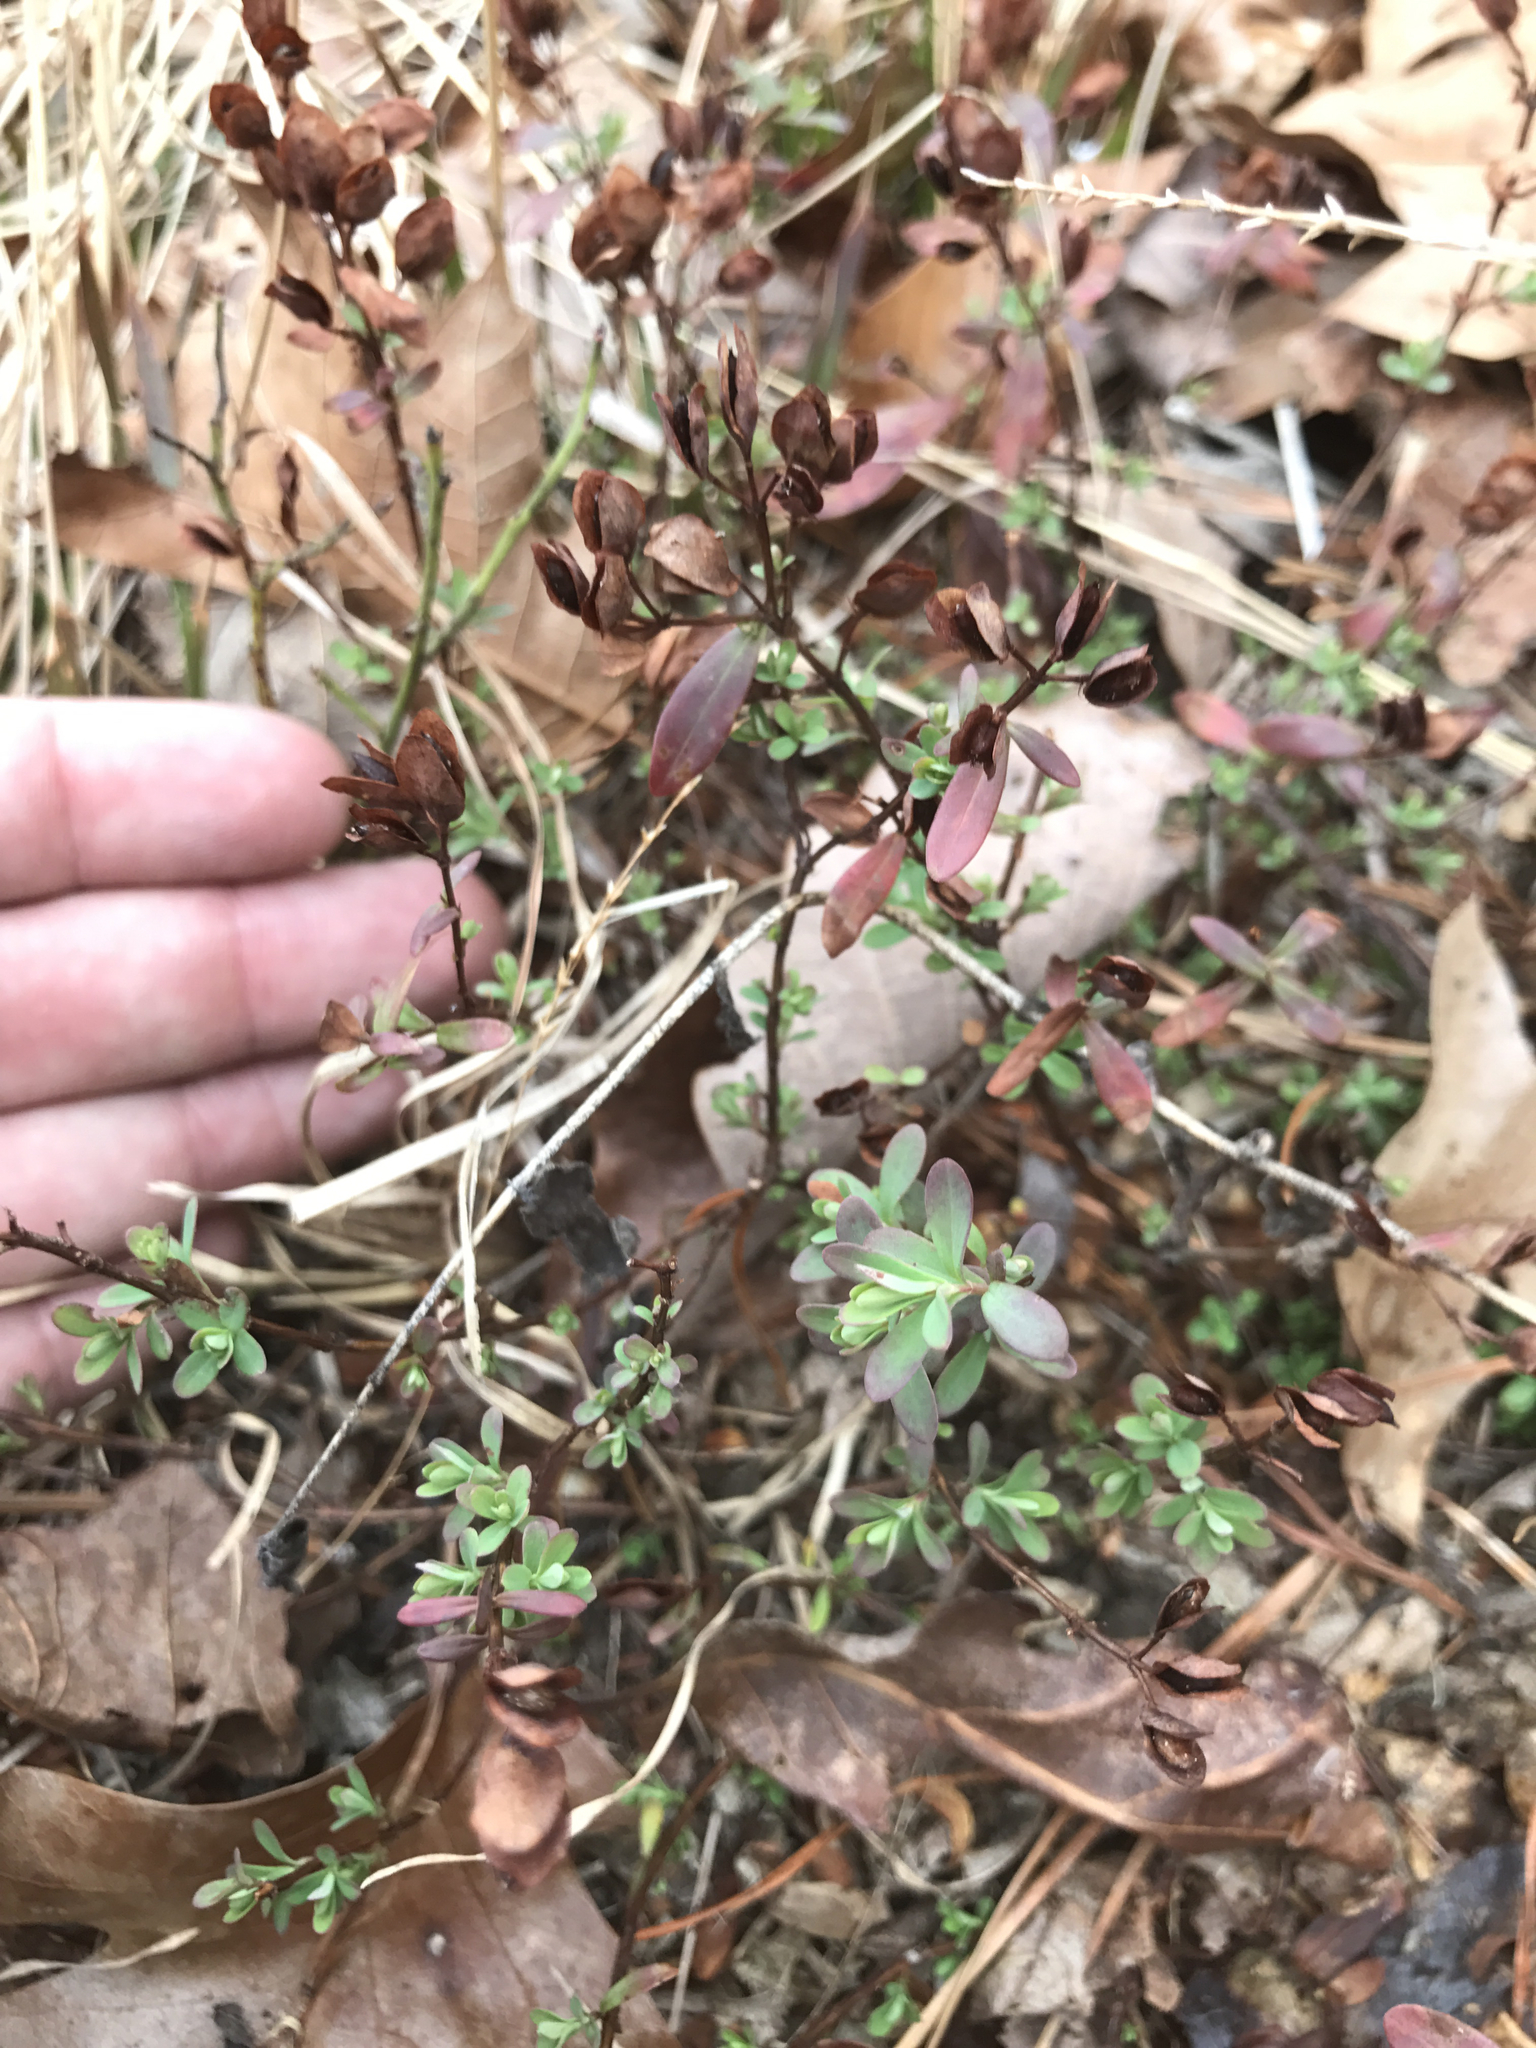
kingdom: Plantae
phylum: Tracheophyta
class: Magnoliopsida
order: Malpighiales
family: Hypericaceae
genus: Hypericum
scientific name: Hypericum hypericoides
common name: St. andrew's cross
